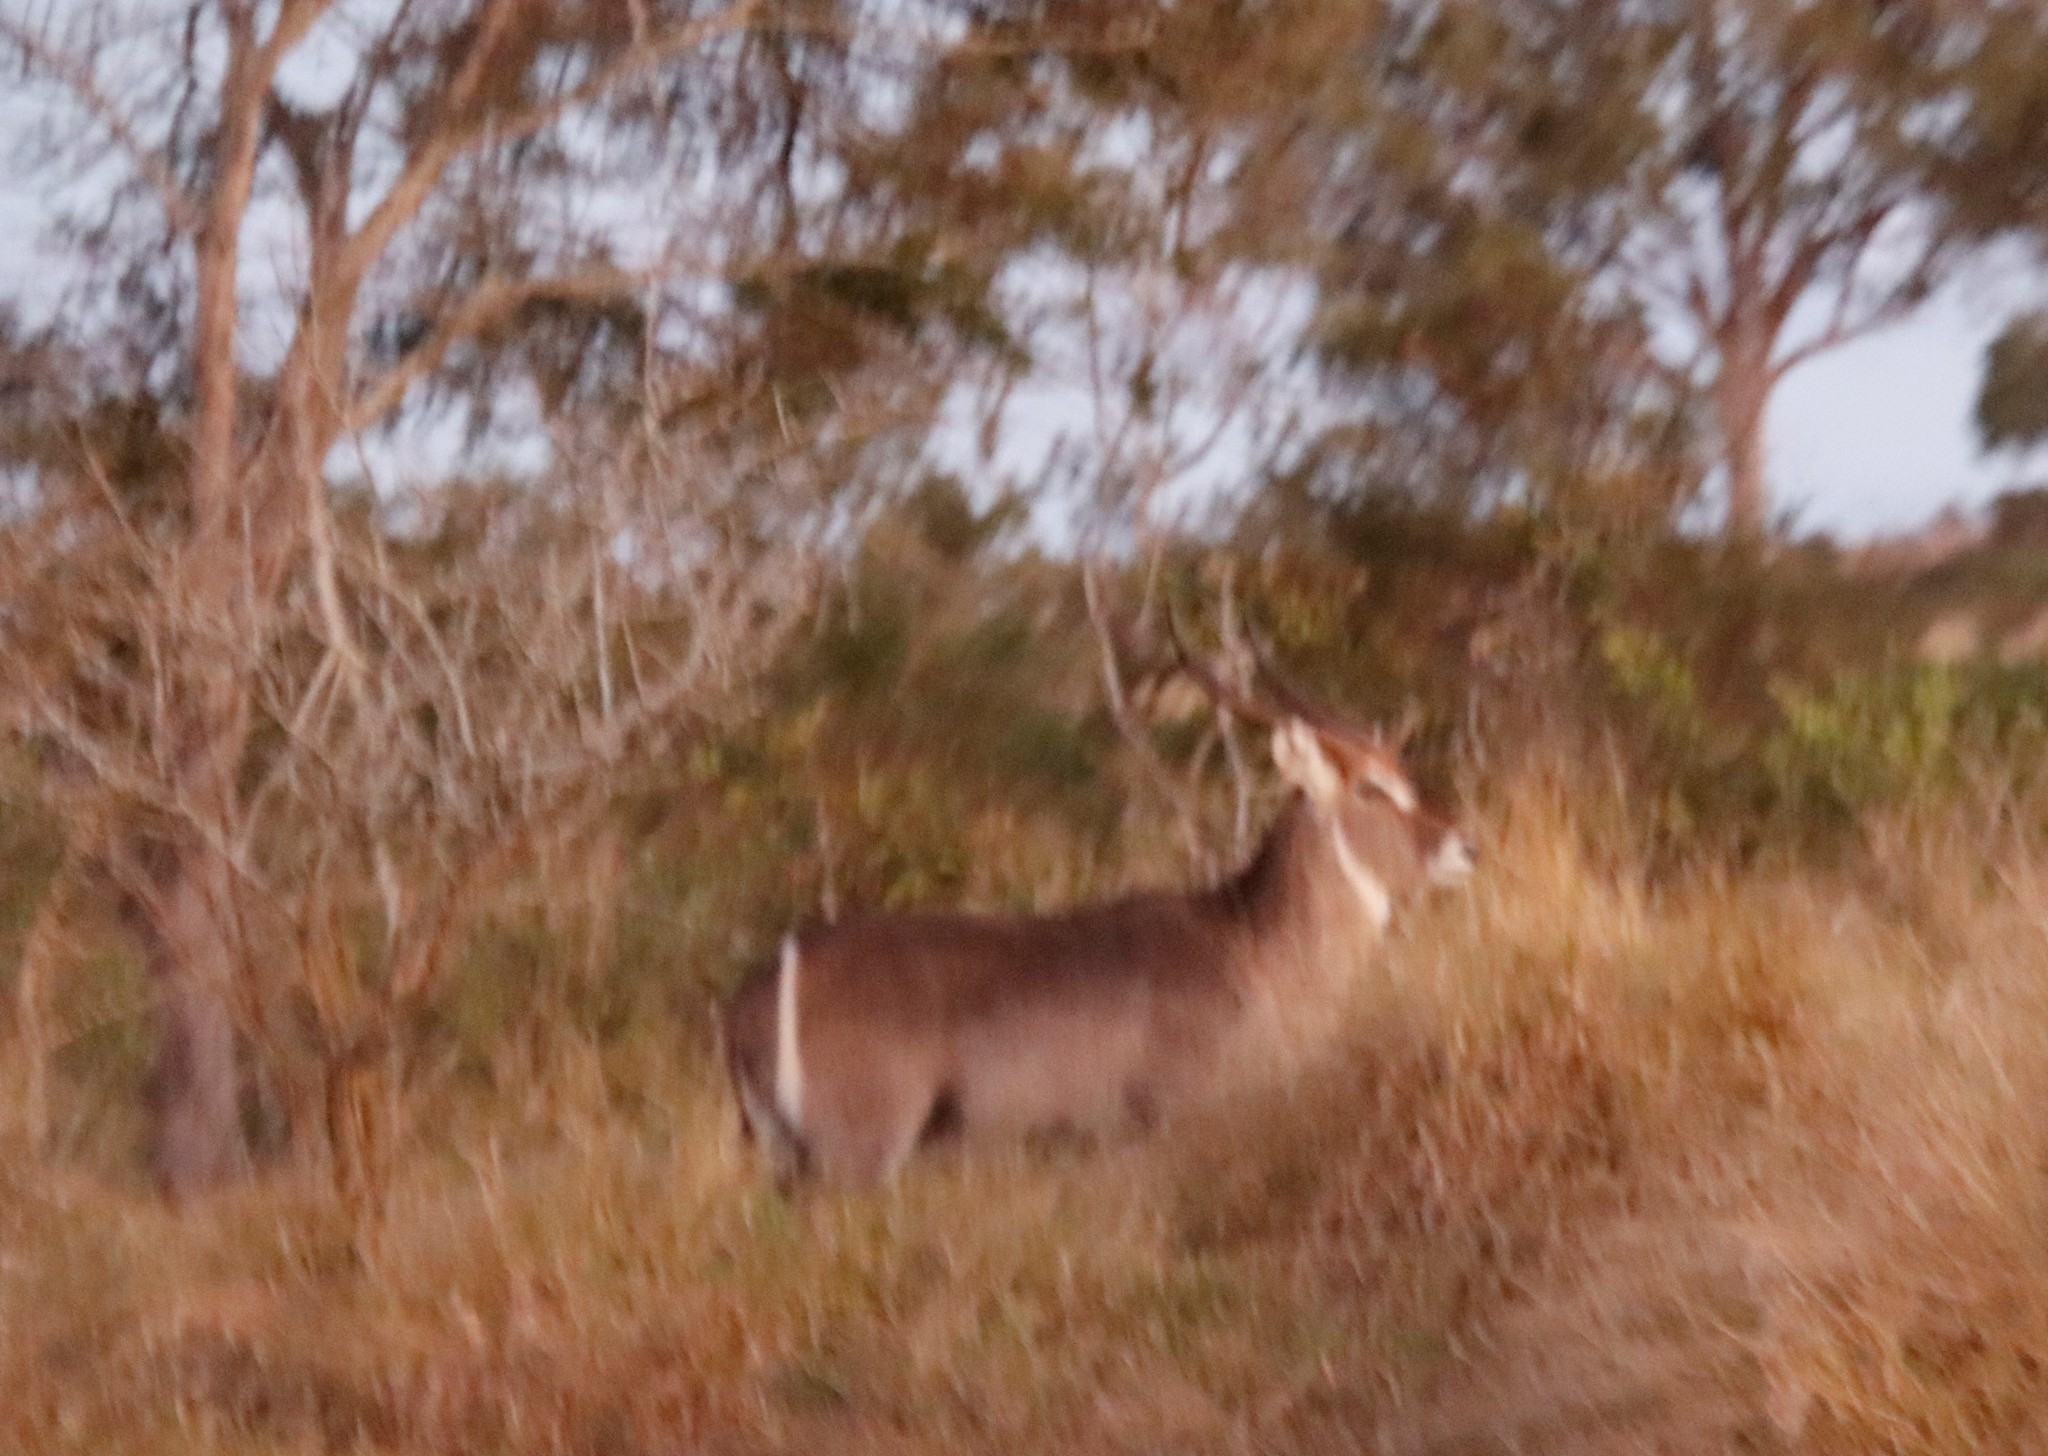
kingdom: Animalia
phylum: Chordata
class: Mammalia
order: Artiodactyla
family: Bovidae
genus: Kobus
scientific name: Kobus ellipsiprymnus
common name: Waterbuck
